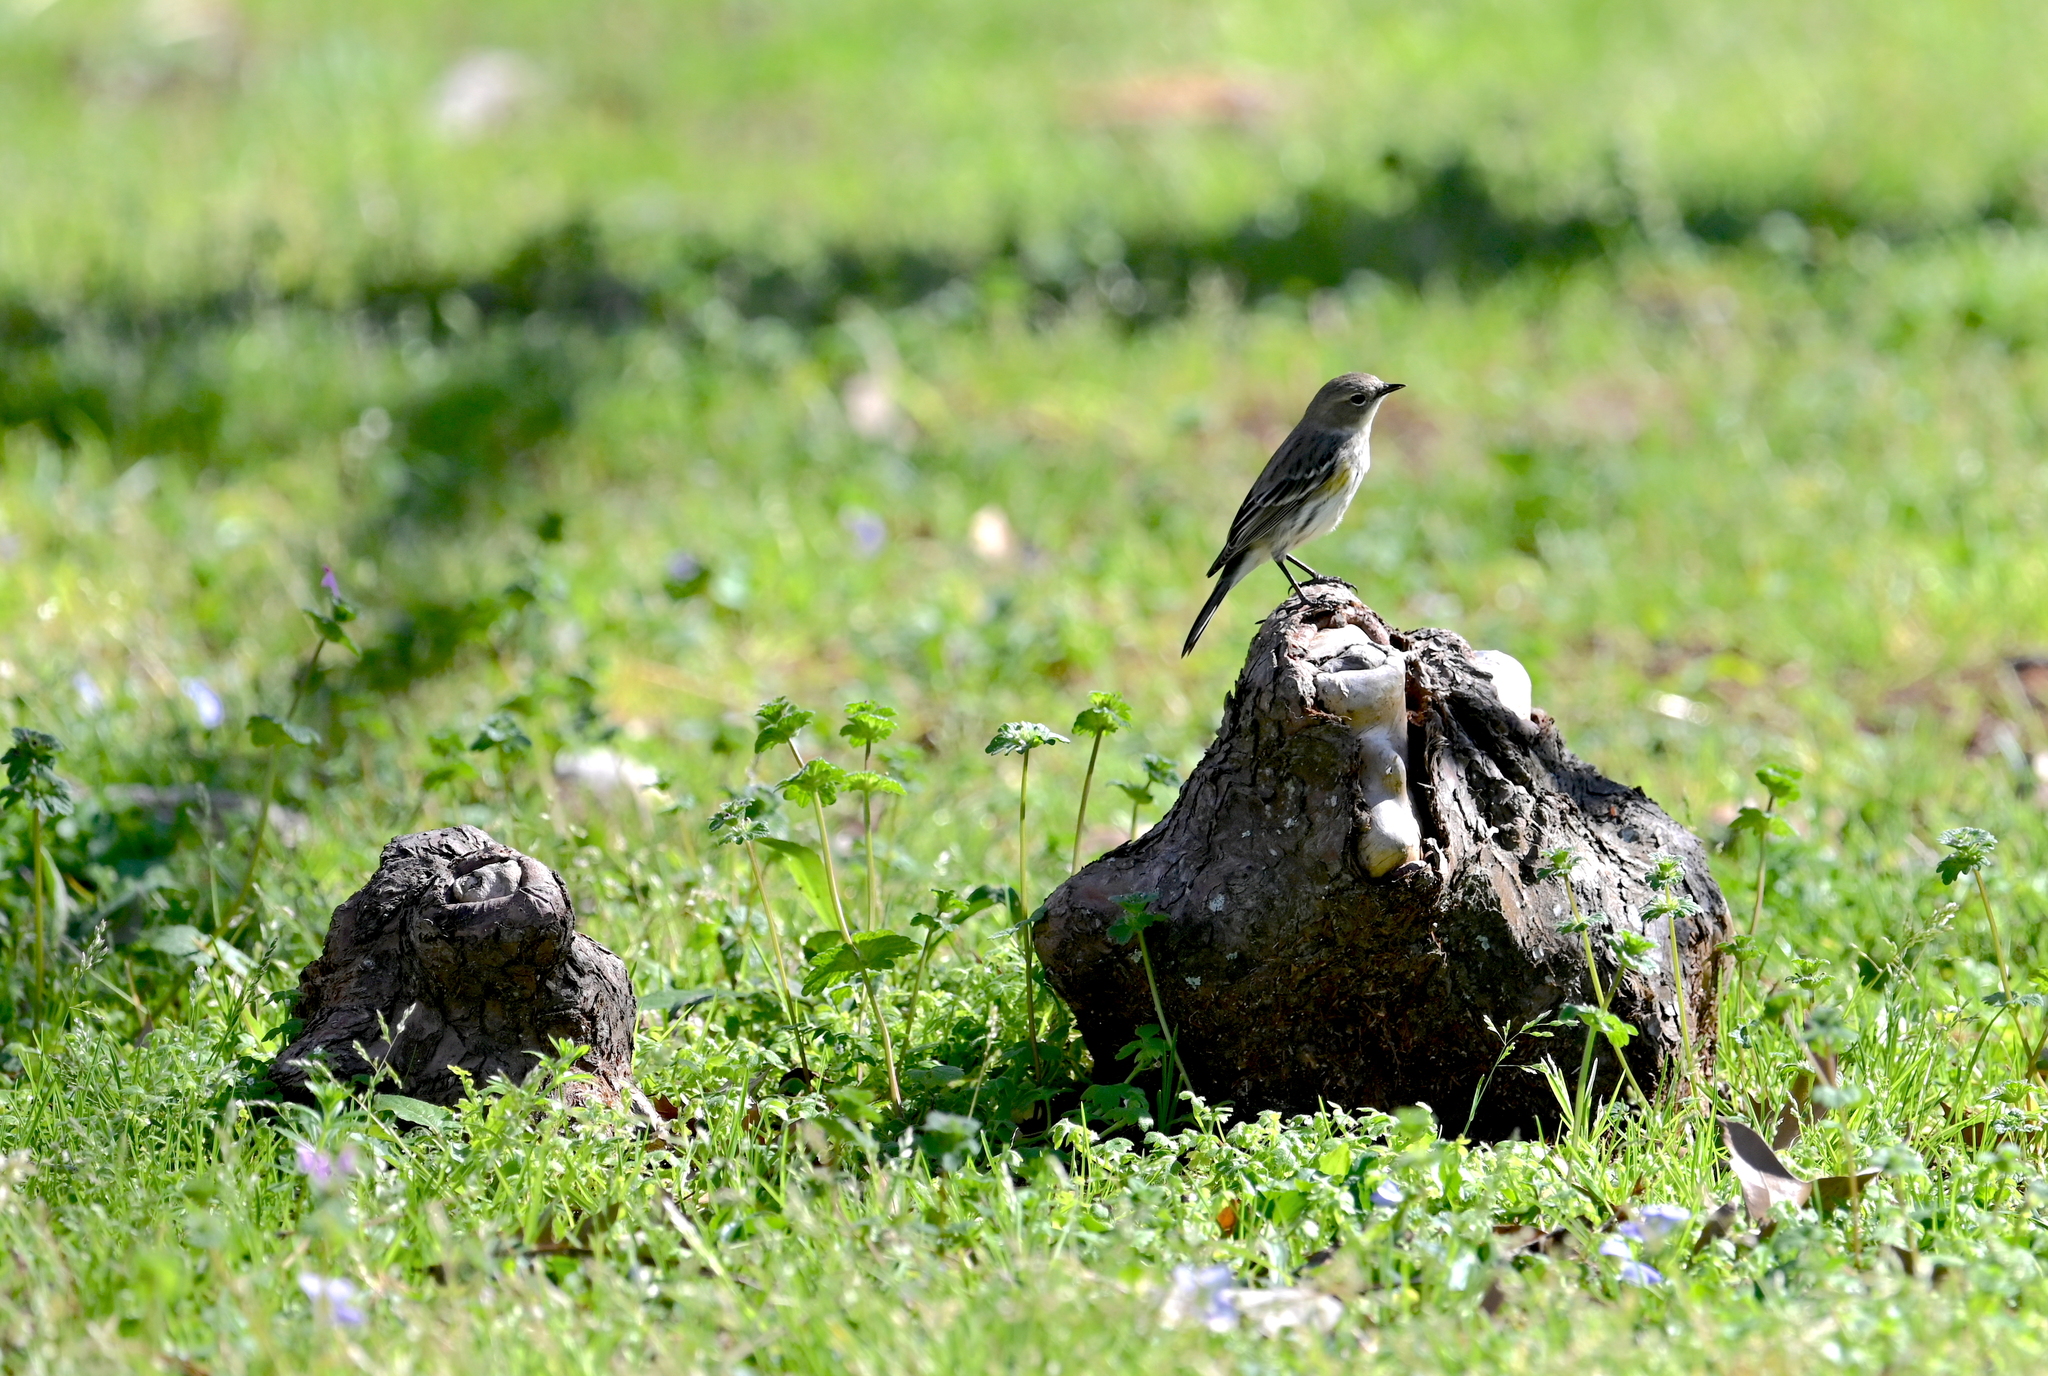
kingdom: Animalia
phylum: Chordata
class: Aves
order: Passeriformes
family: Parulidae
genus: Setophaga
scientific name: Setophaga coronata
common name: Myrtle warbler
